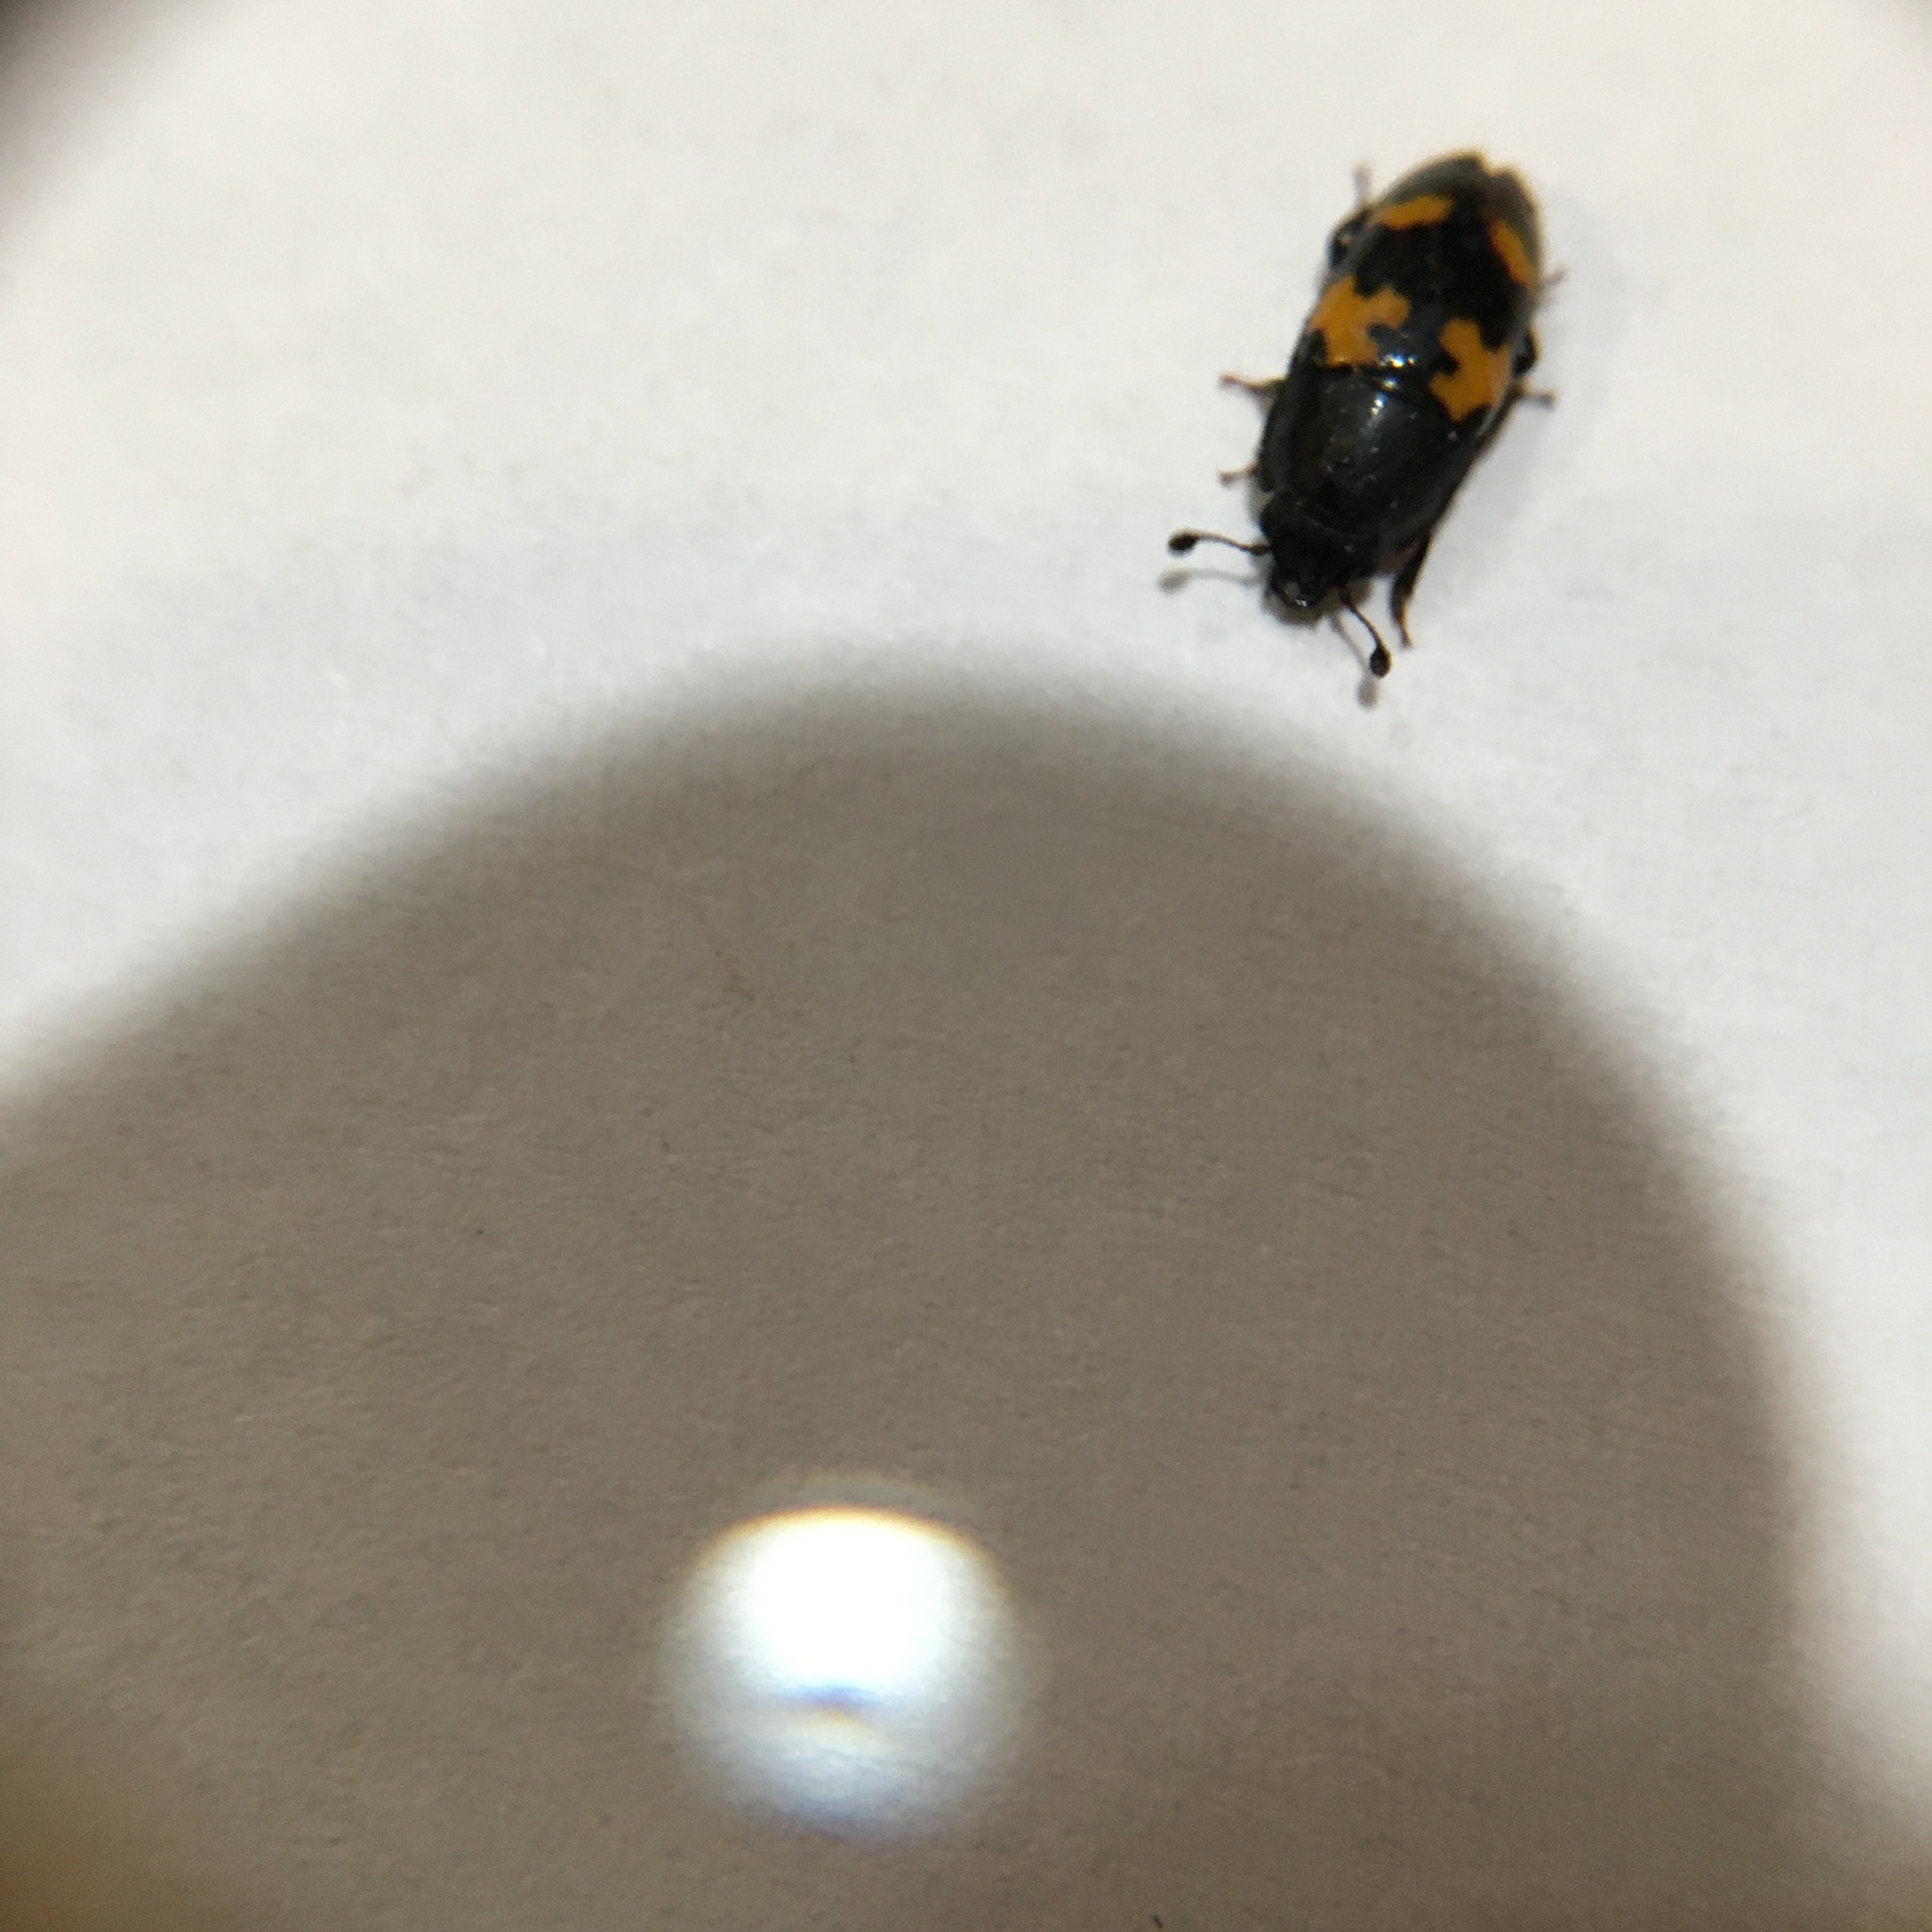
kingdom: Animalia
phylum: Arthropoda
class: Insecta
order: Coleoptera
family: Nitidulidae
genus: Glischrochilus
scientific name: Glischrochilus fasciatus
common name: Picnic beetle
